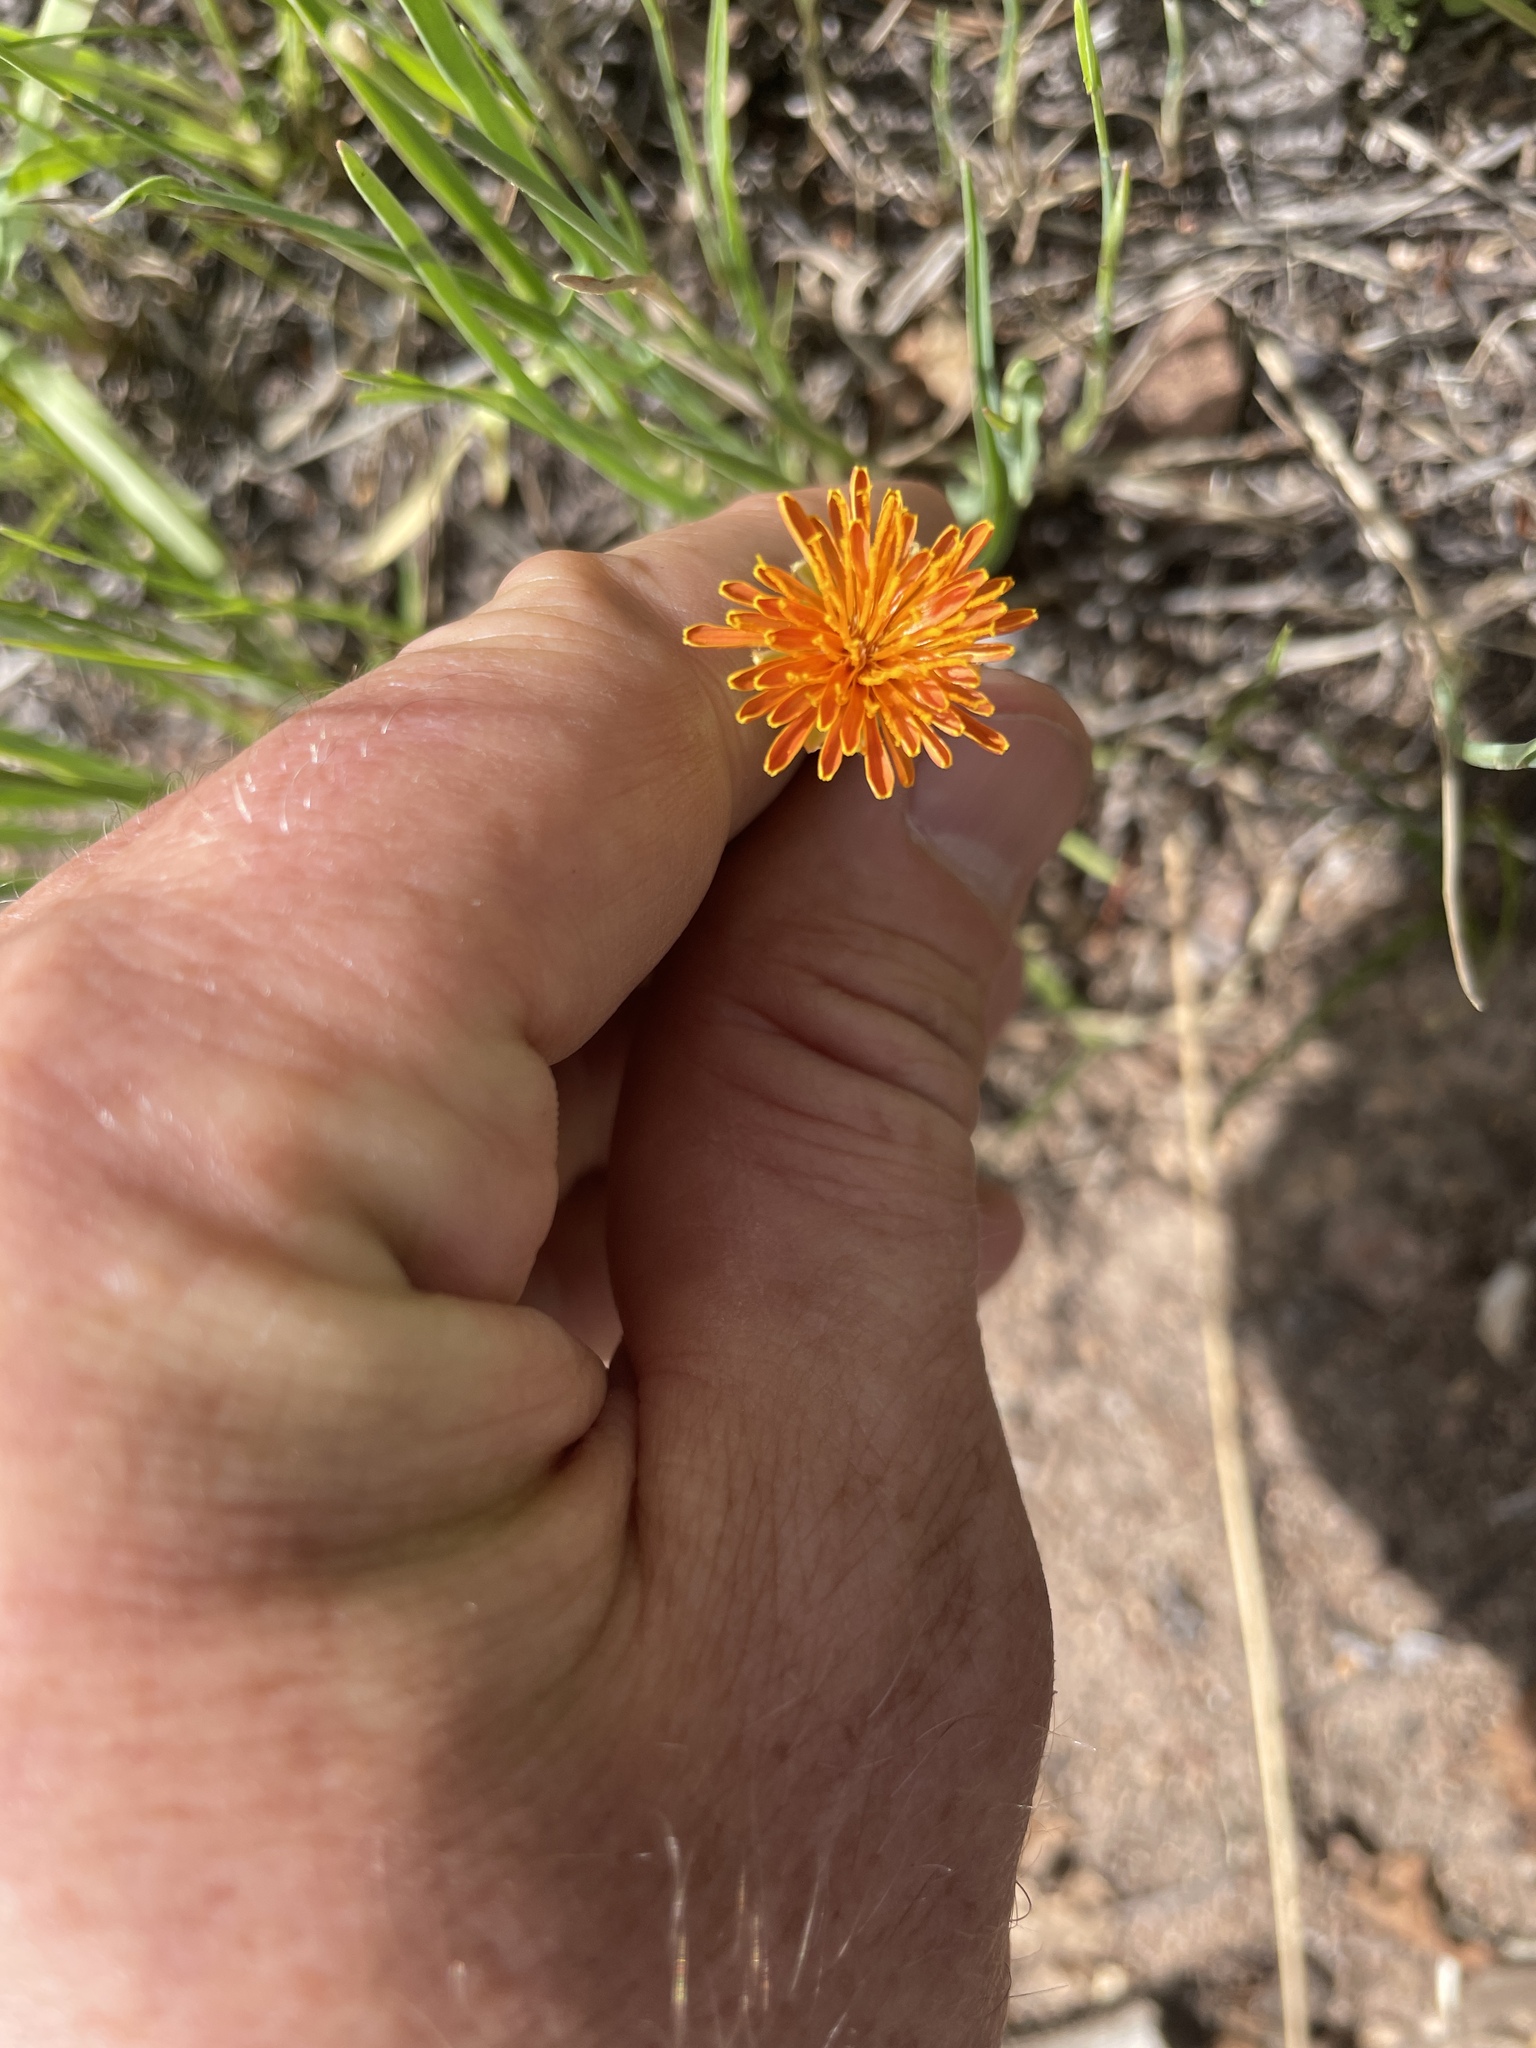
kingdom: Plantae
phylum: Tracheophyta
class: Magnoliopsida
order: Asterales
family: Asteraceae
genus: Agoseris
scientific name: Agoseris aurantiaca
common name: Mountain agoseris
